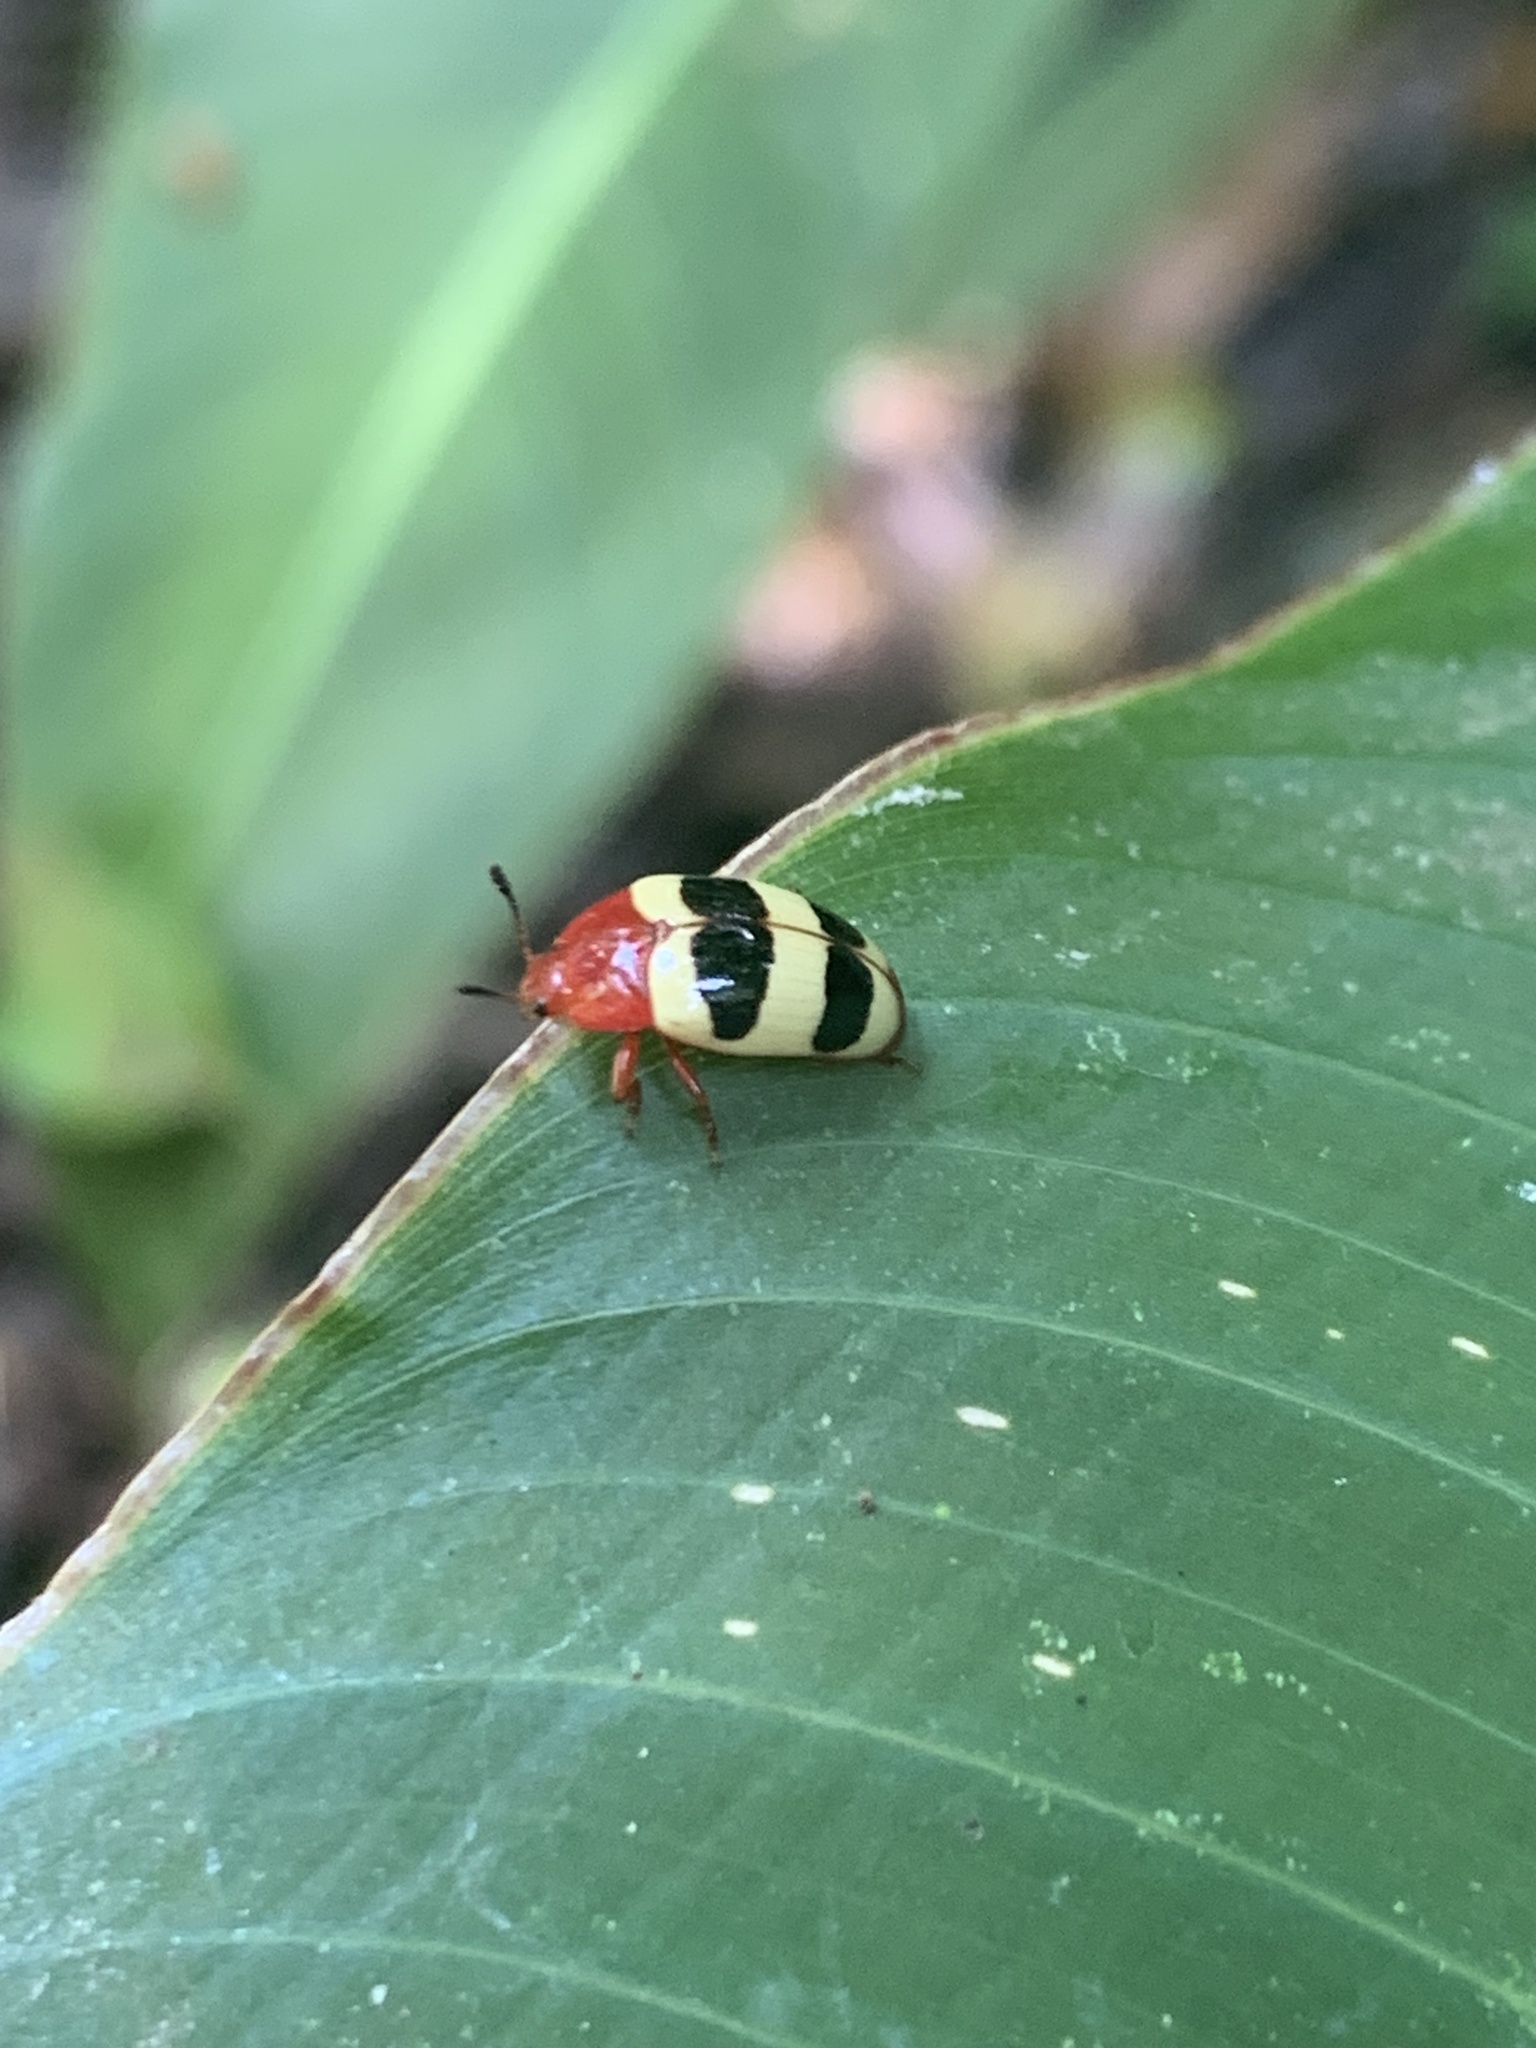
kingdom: Animalia
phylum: Arthropoda
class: Insecta
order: Coleoptera
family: Erotylidae
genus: Callischyrus
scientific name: Callischyrus
